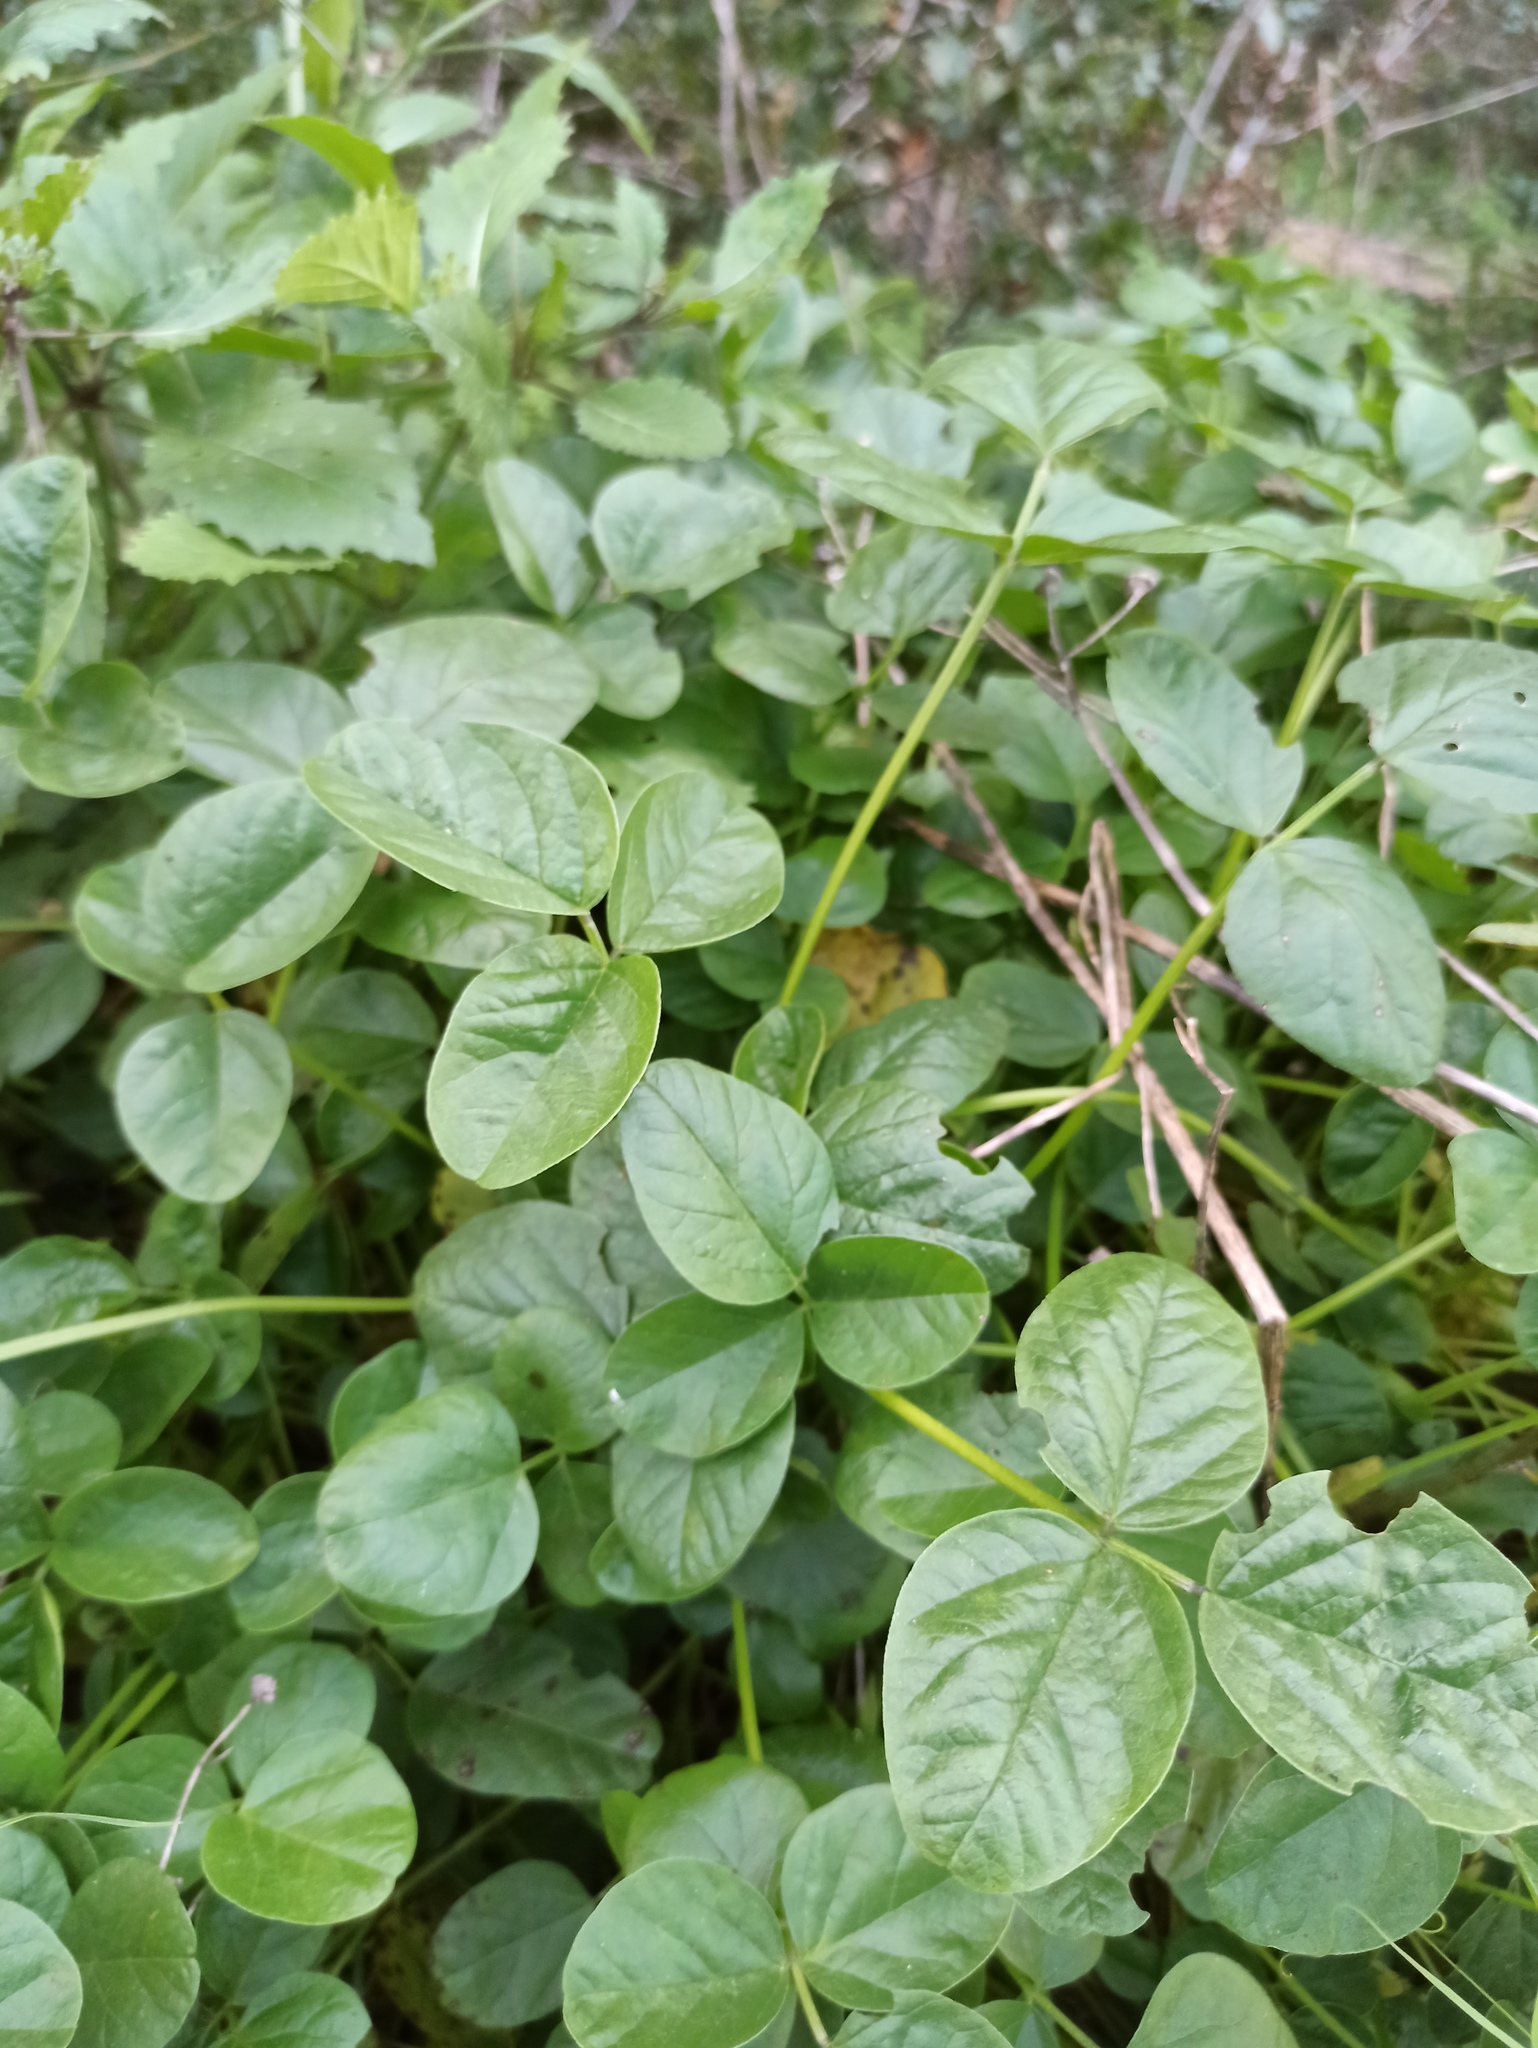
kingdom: Plantae
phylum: Tracheophyta
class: Magnoliopsida
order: Fabales
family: Fabaceae
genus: Bituminaria
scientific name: Bituminaria bituminosa
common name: Arabian pea
